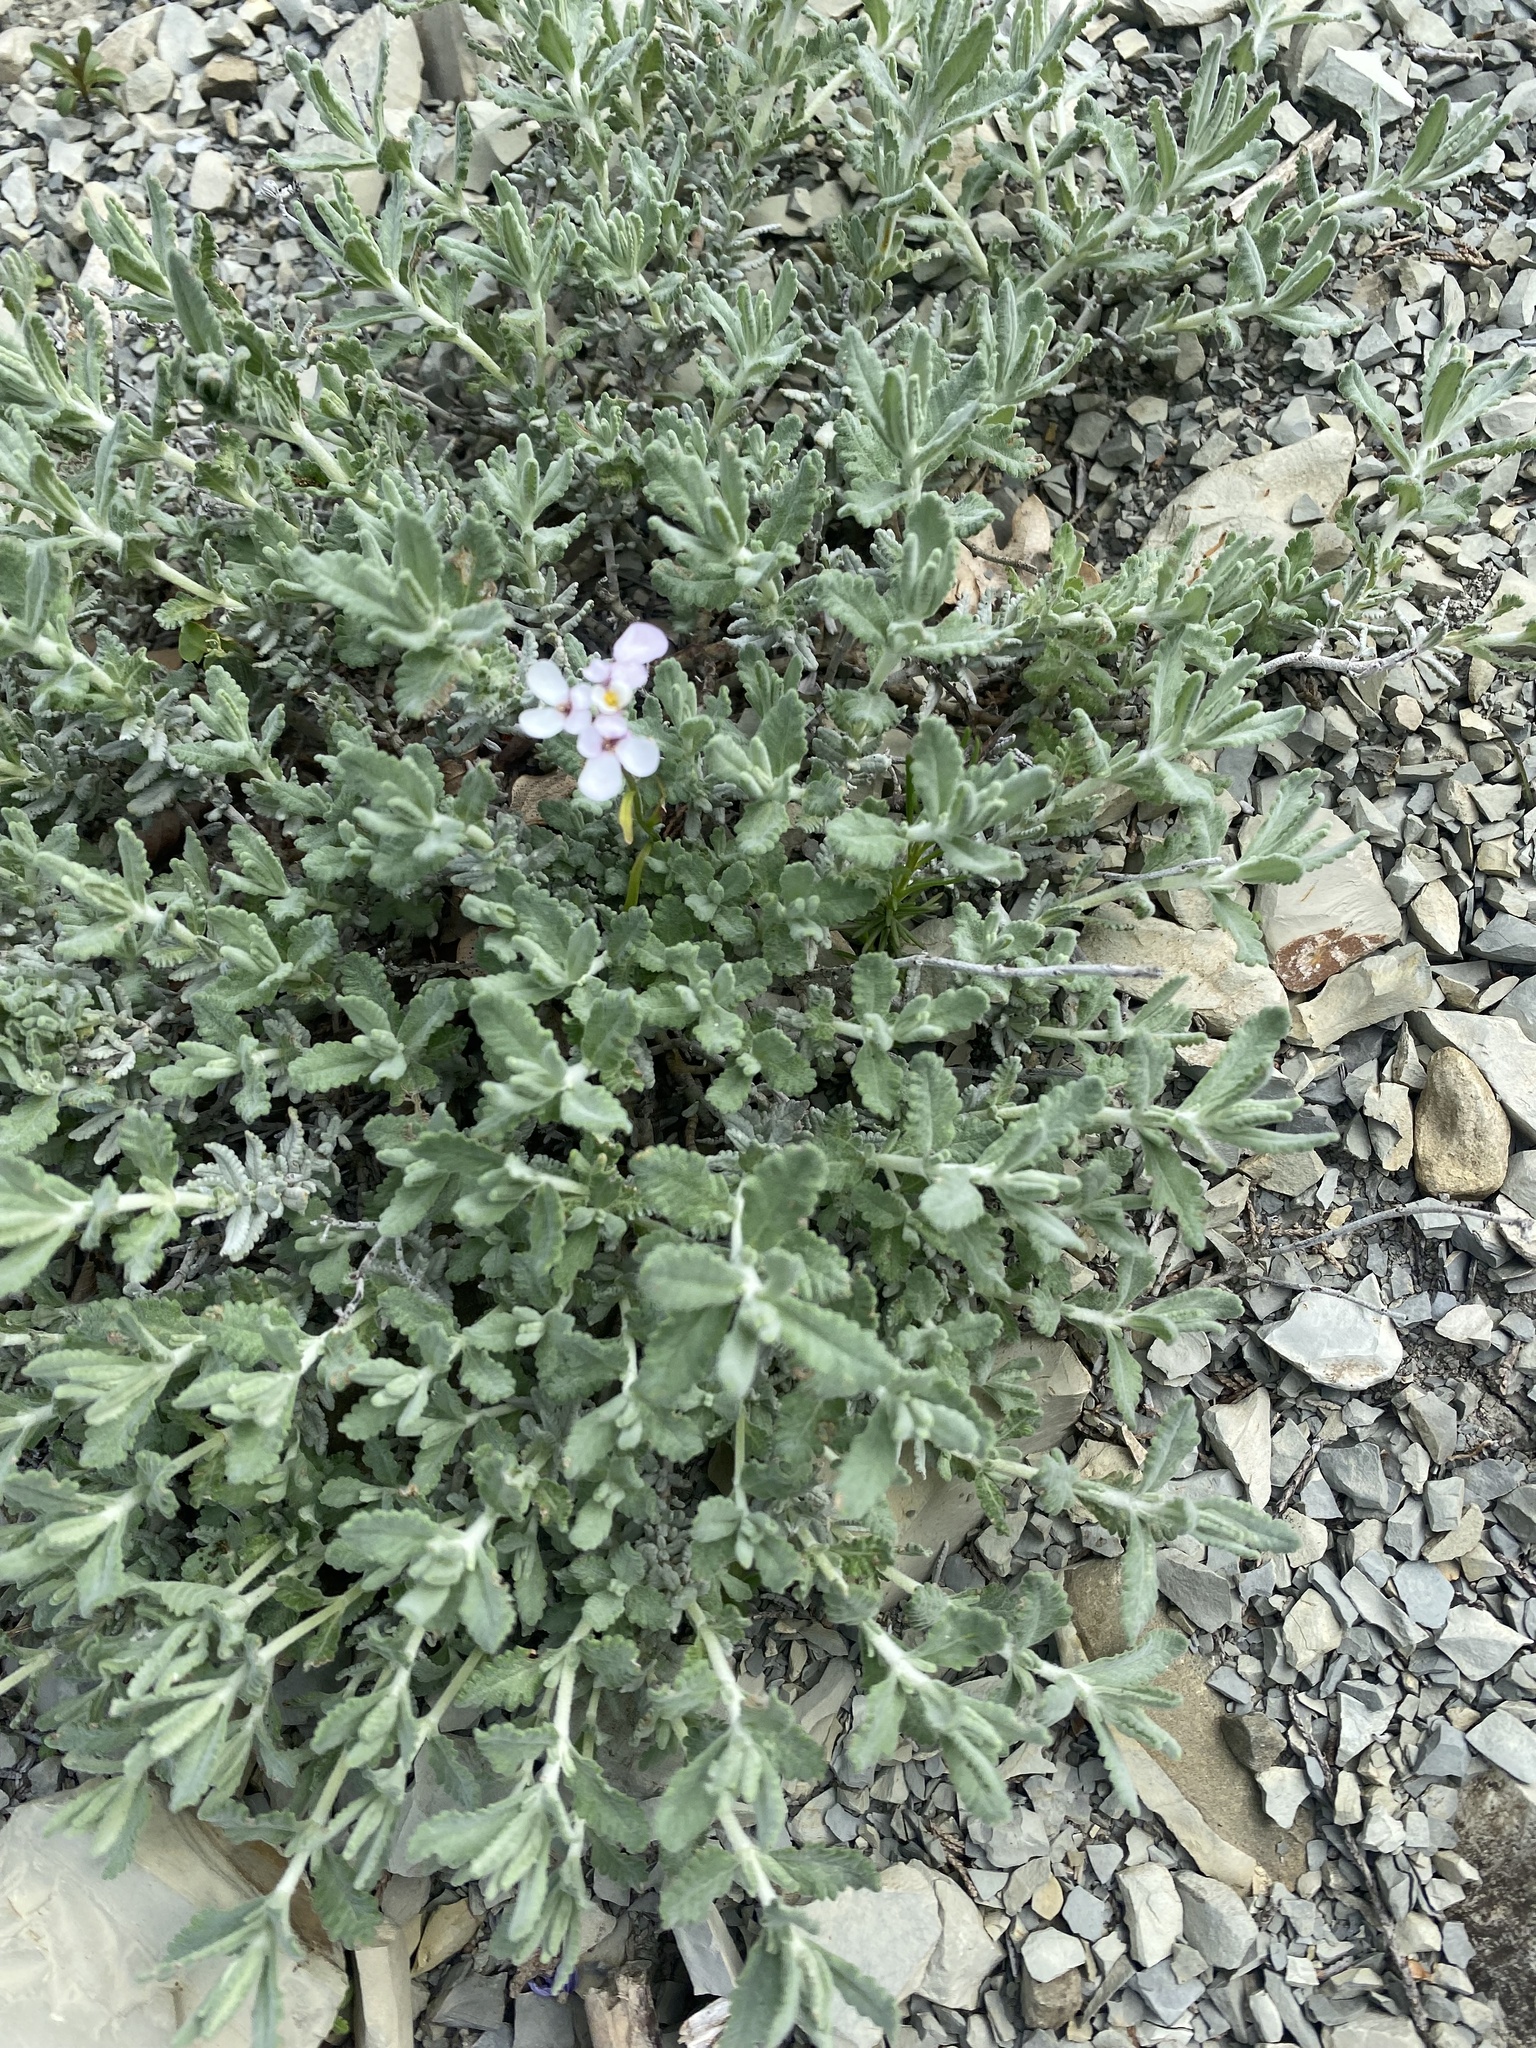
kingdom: Plantae
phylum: Tracheophyta
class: Magnoliopsida
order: Lamiales
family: Lamiaceae
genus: Teucrium
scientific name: Teucrium polium
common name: Poley
